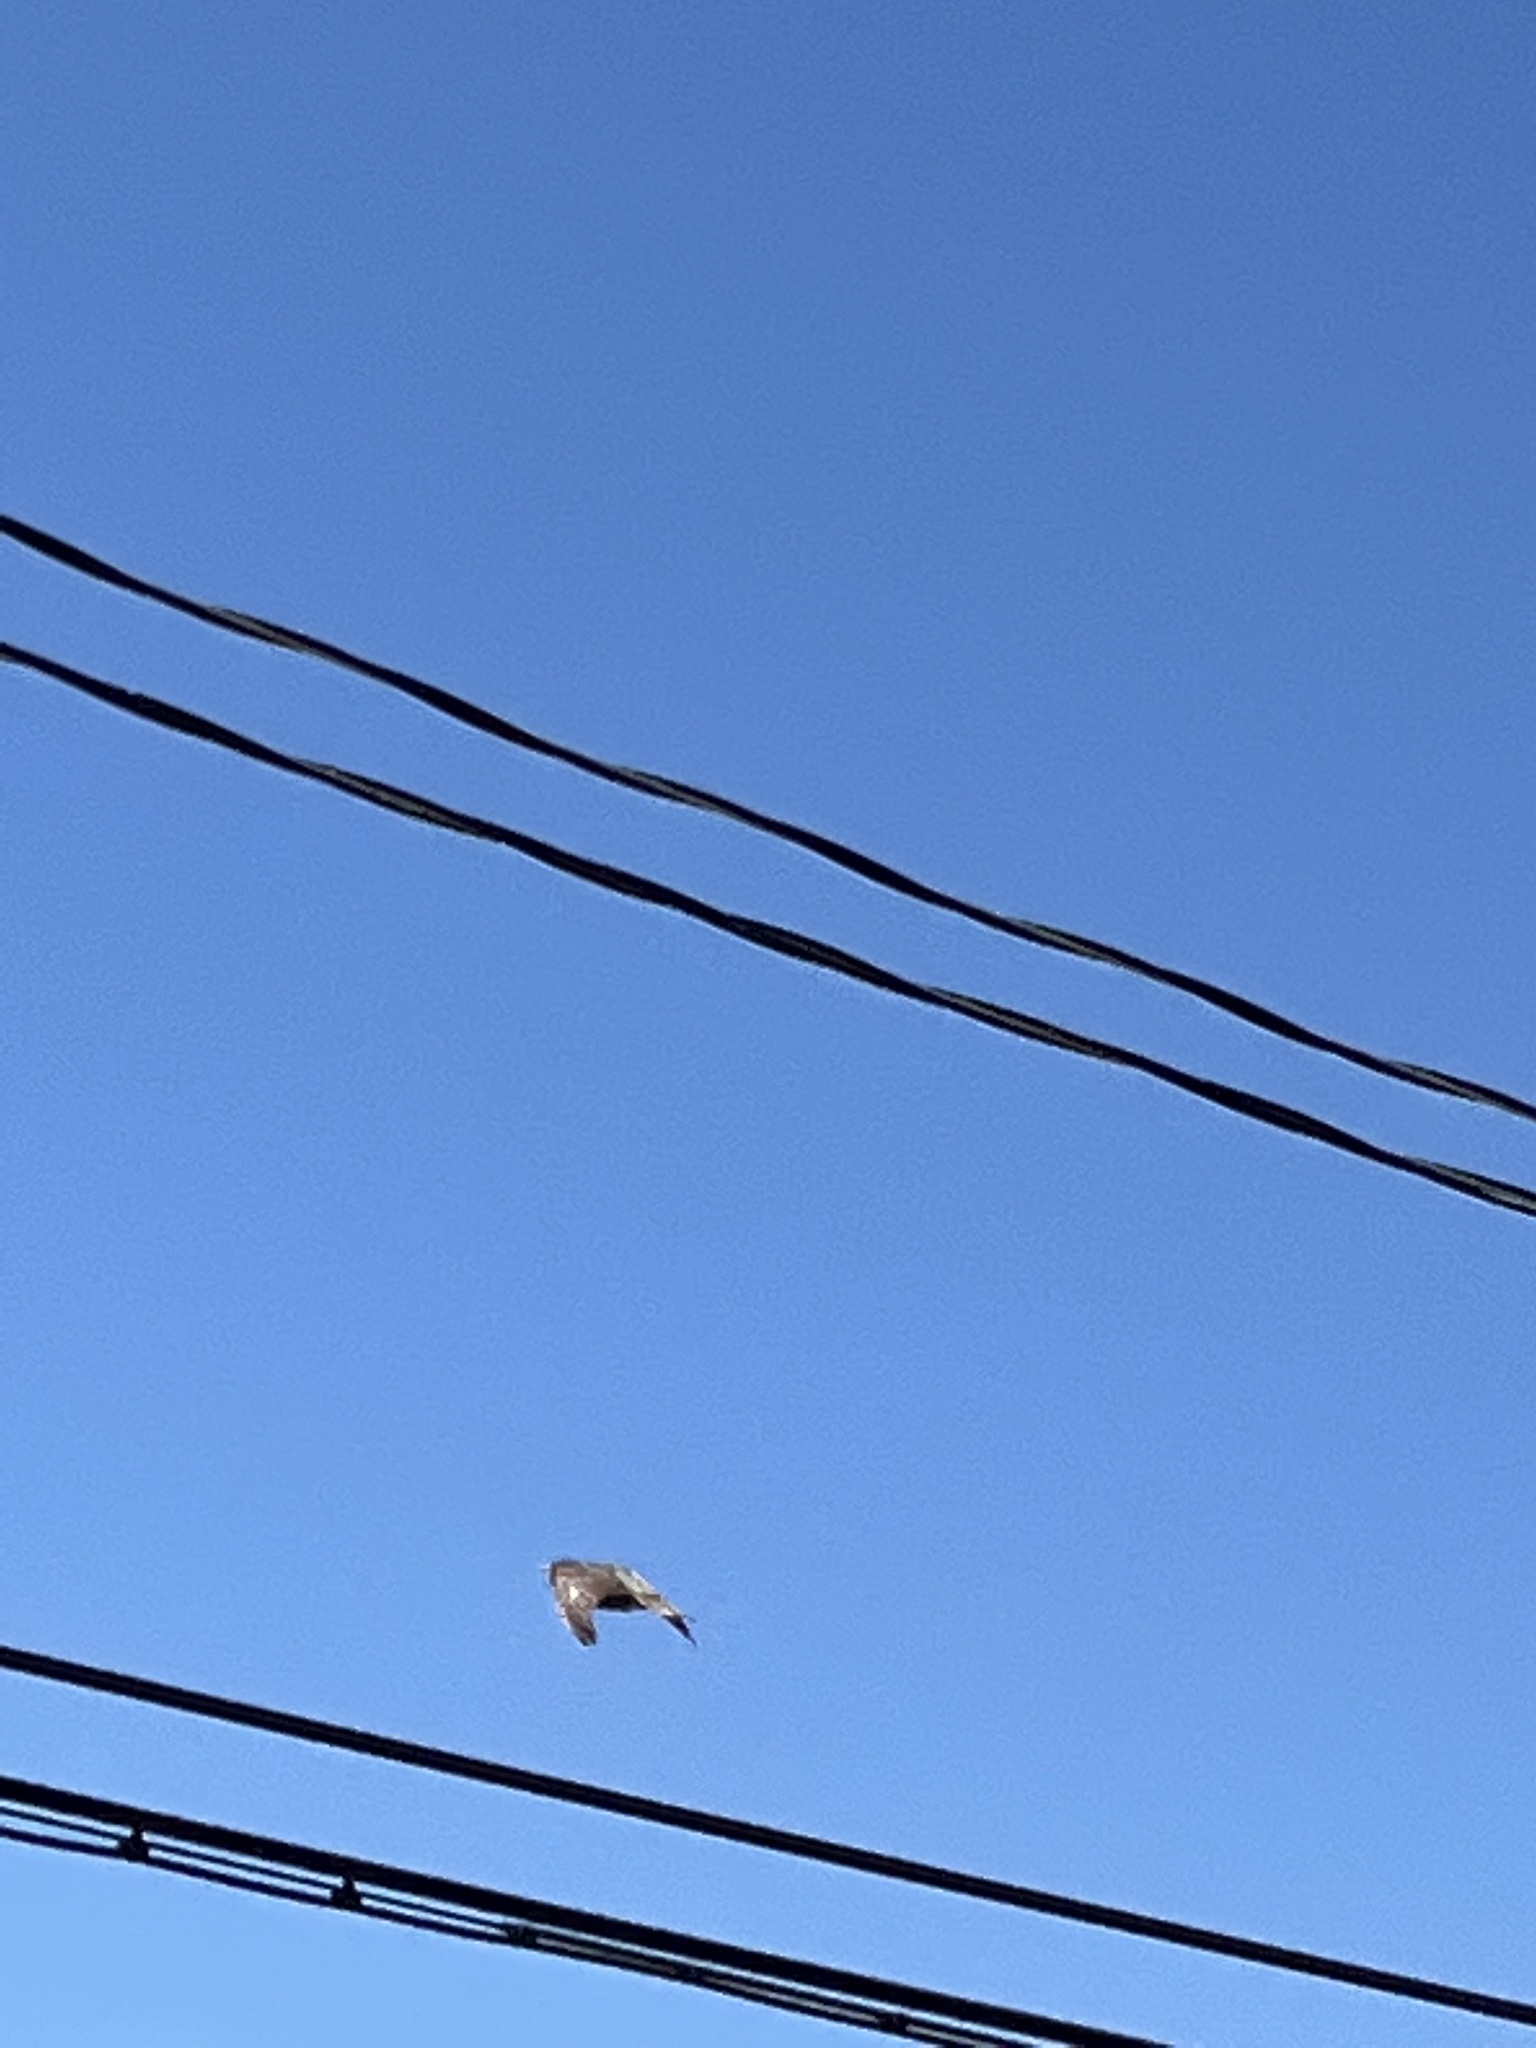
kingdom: Animalia
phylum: Chordata
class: Aves
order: Passeriformes
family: Sturnidae
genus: Sturnus
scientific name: Sturnus vulgaris
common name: Common starling
